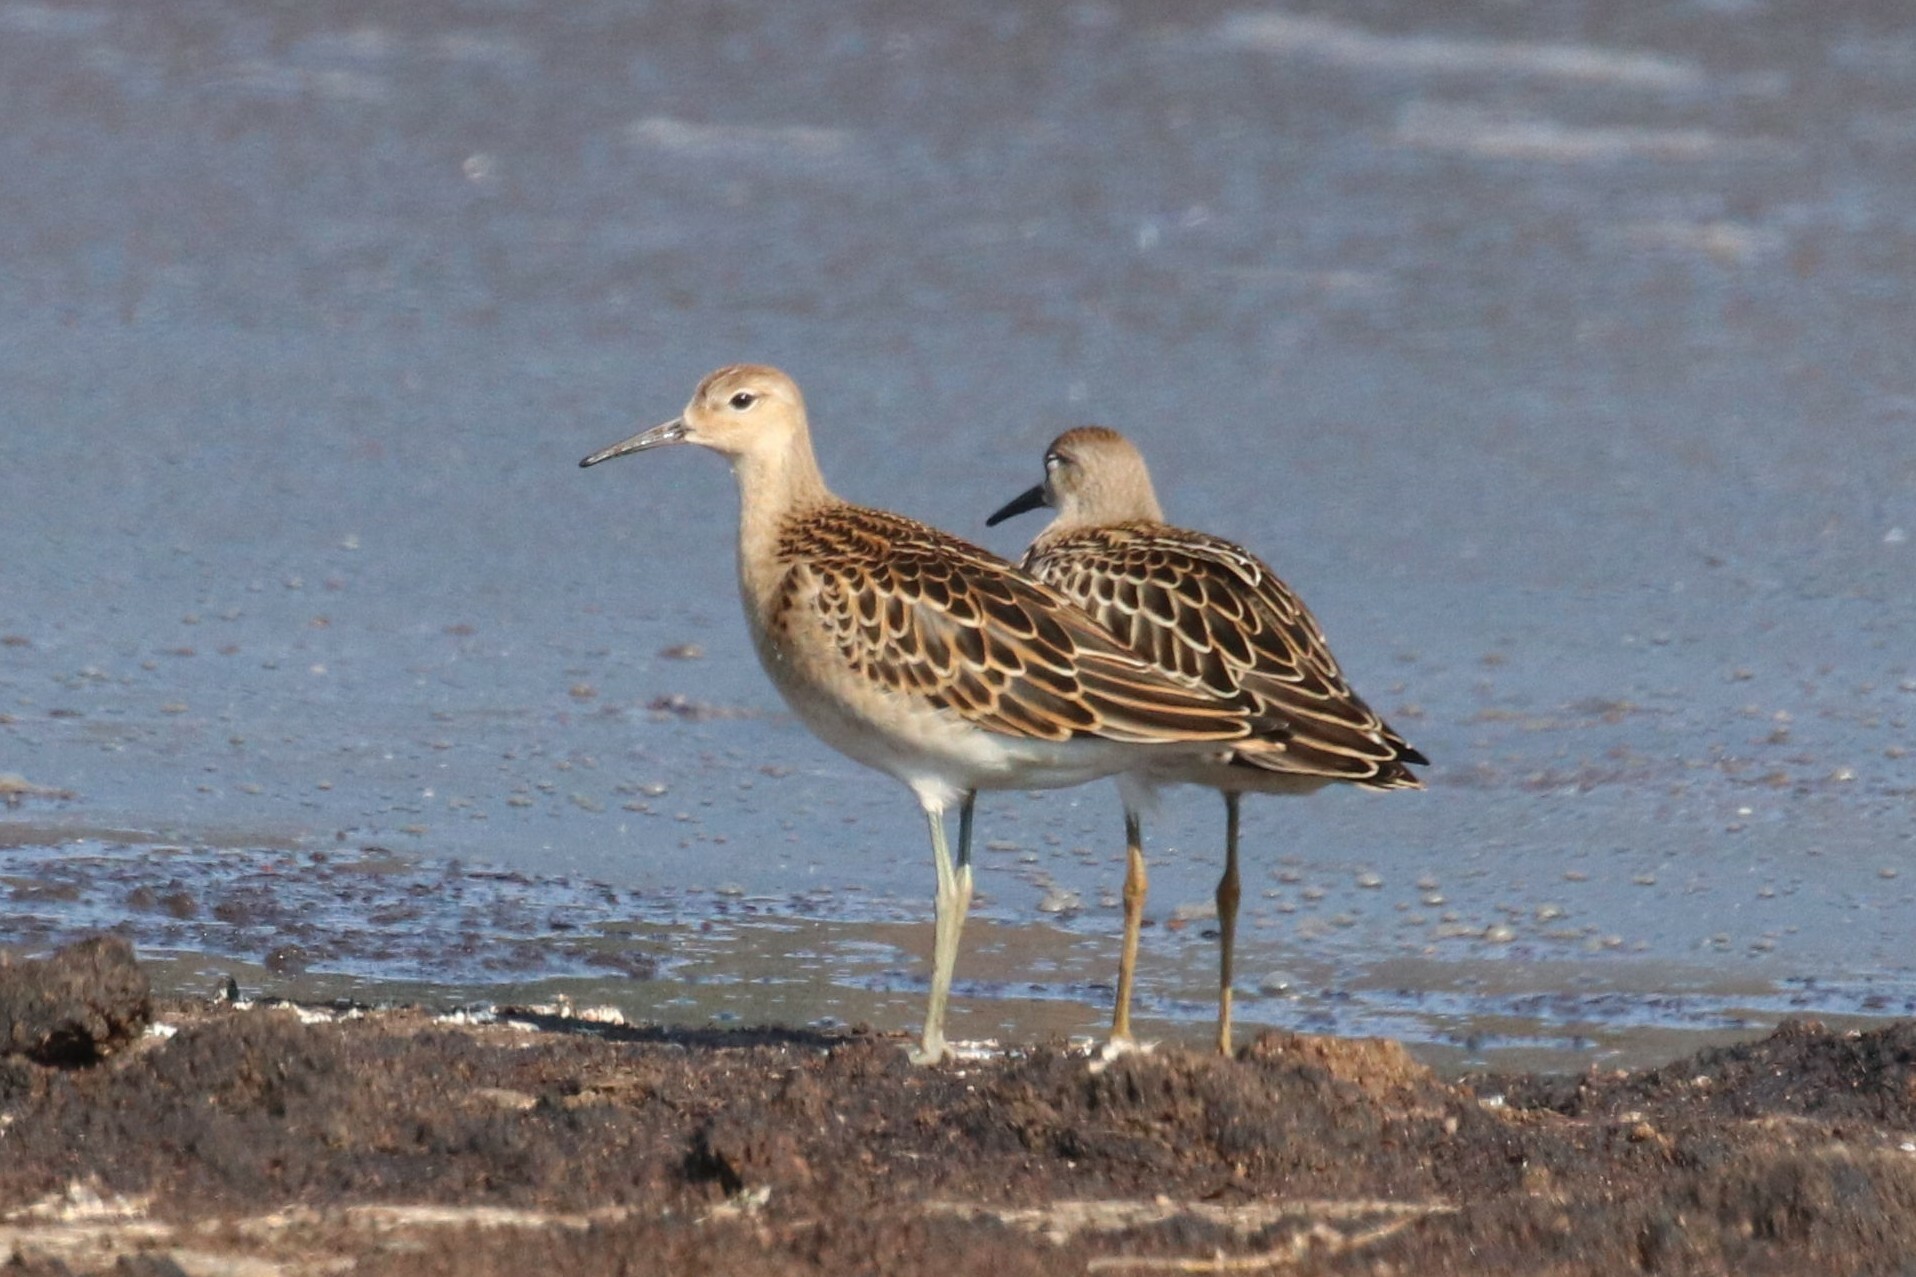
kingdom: Animalia
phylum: Chordata
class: Aves
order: Charadriiformes
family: Scolopacidae
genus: Calidris
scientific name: Calidris pugnax
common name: Ruff
